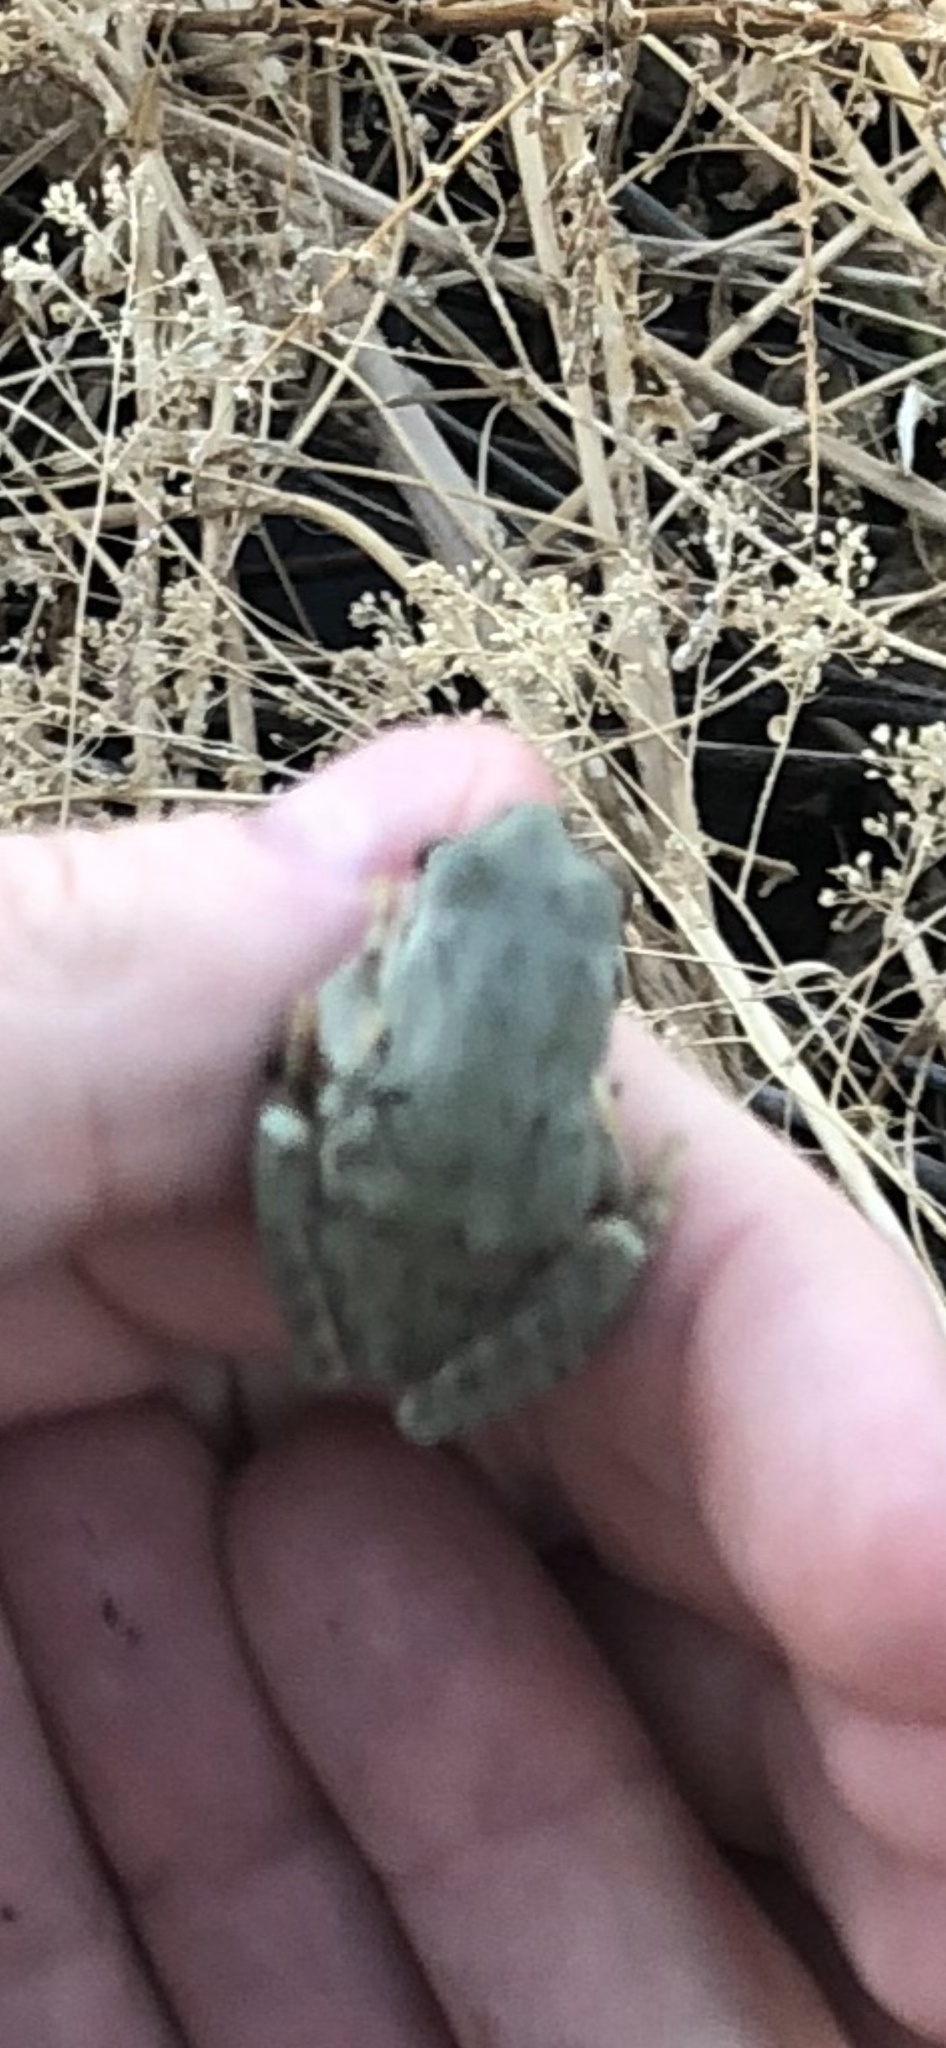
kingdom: Animalia
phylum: Chordata
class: Amphibia
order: Anura
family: Hylidae
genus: Pseudacris
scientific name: Pseudacris regilla
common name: Pacific chorus frog
